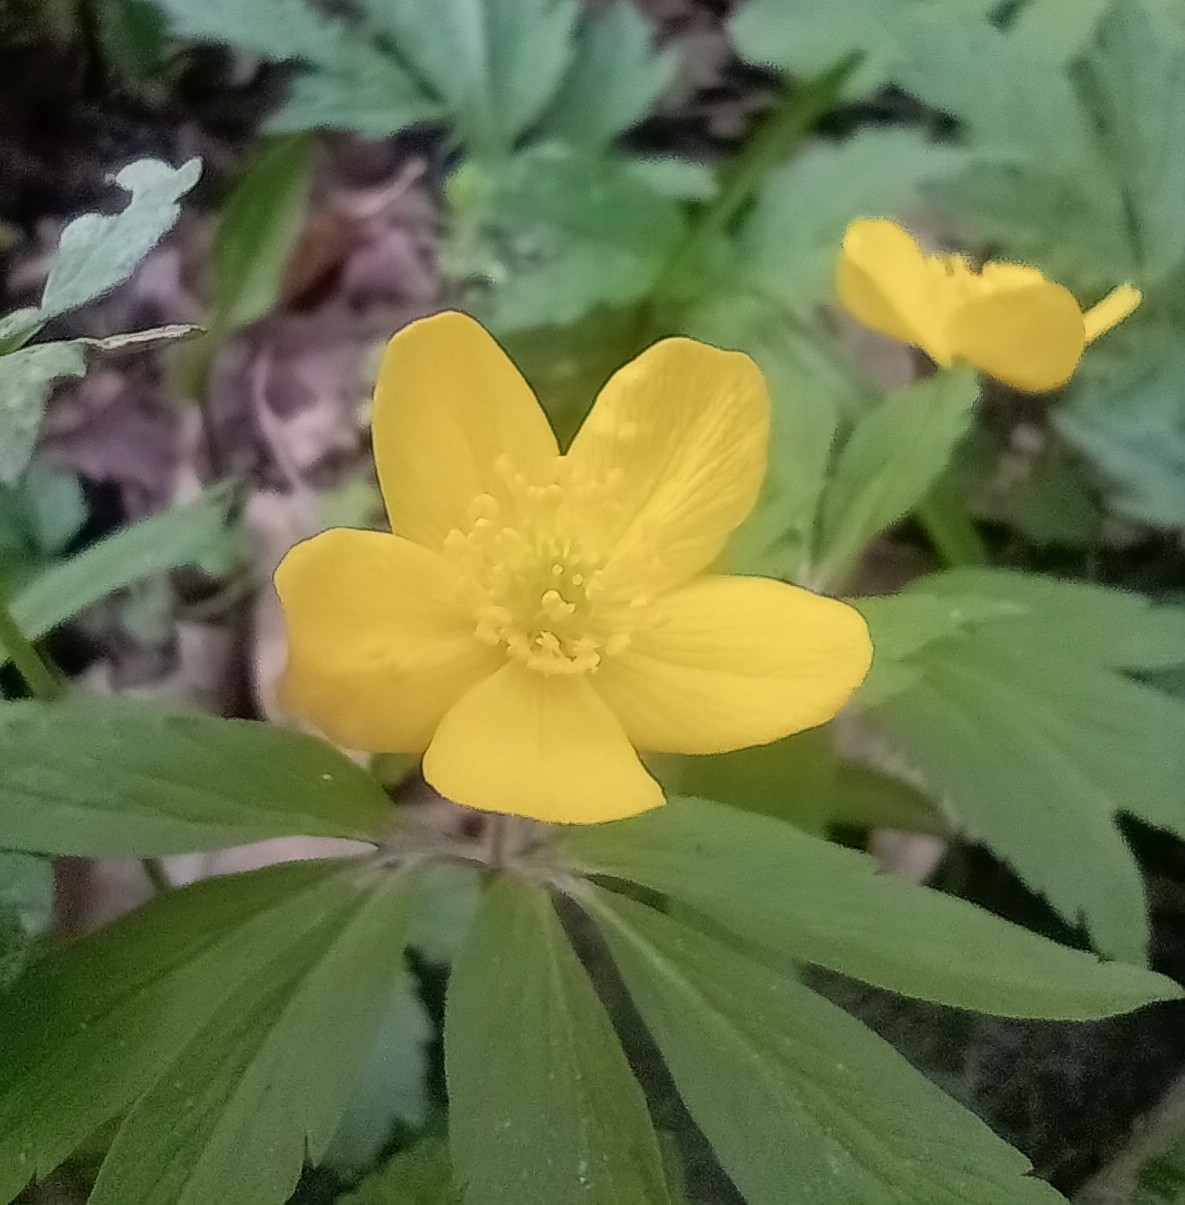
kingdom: Plantae
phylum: Tracheophyta
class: Magnoliopsida
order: Ranunculales
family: Ranunculaceae
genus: Anemone
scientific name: Anemone ranunculoides
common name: Yellow anemone
